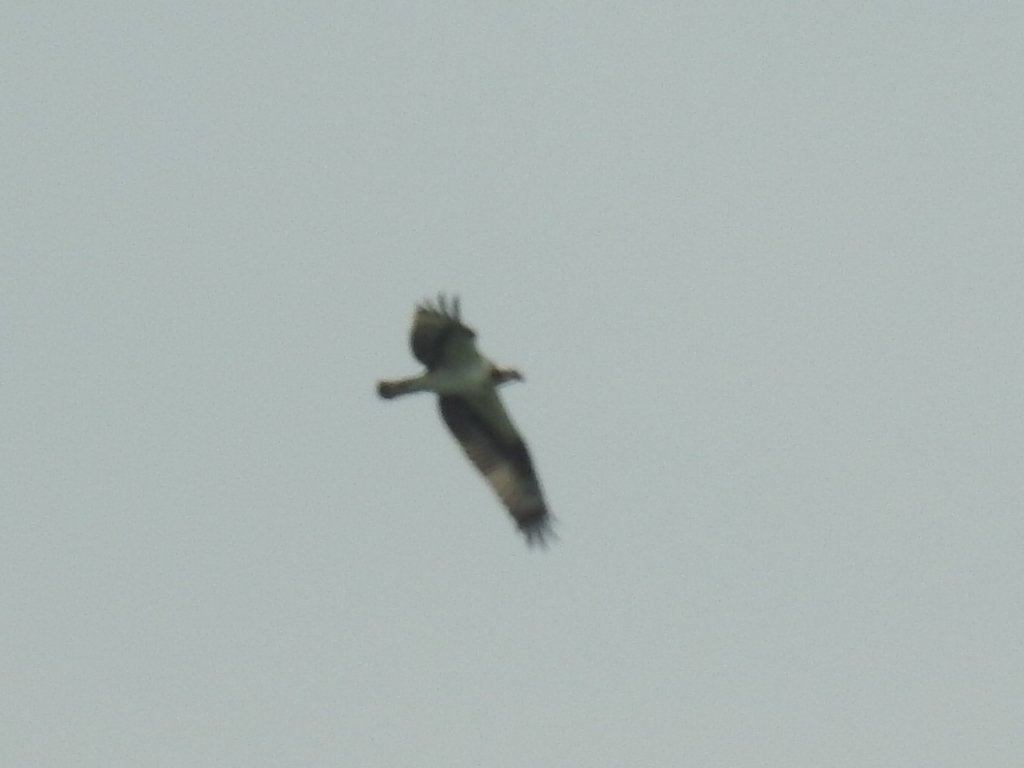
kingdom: Animalia
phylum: Chordata
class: Aves
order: Accipitriformes
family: Pandionidae
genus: Pandion
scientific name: Pandion haliaetus
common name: Osprey
